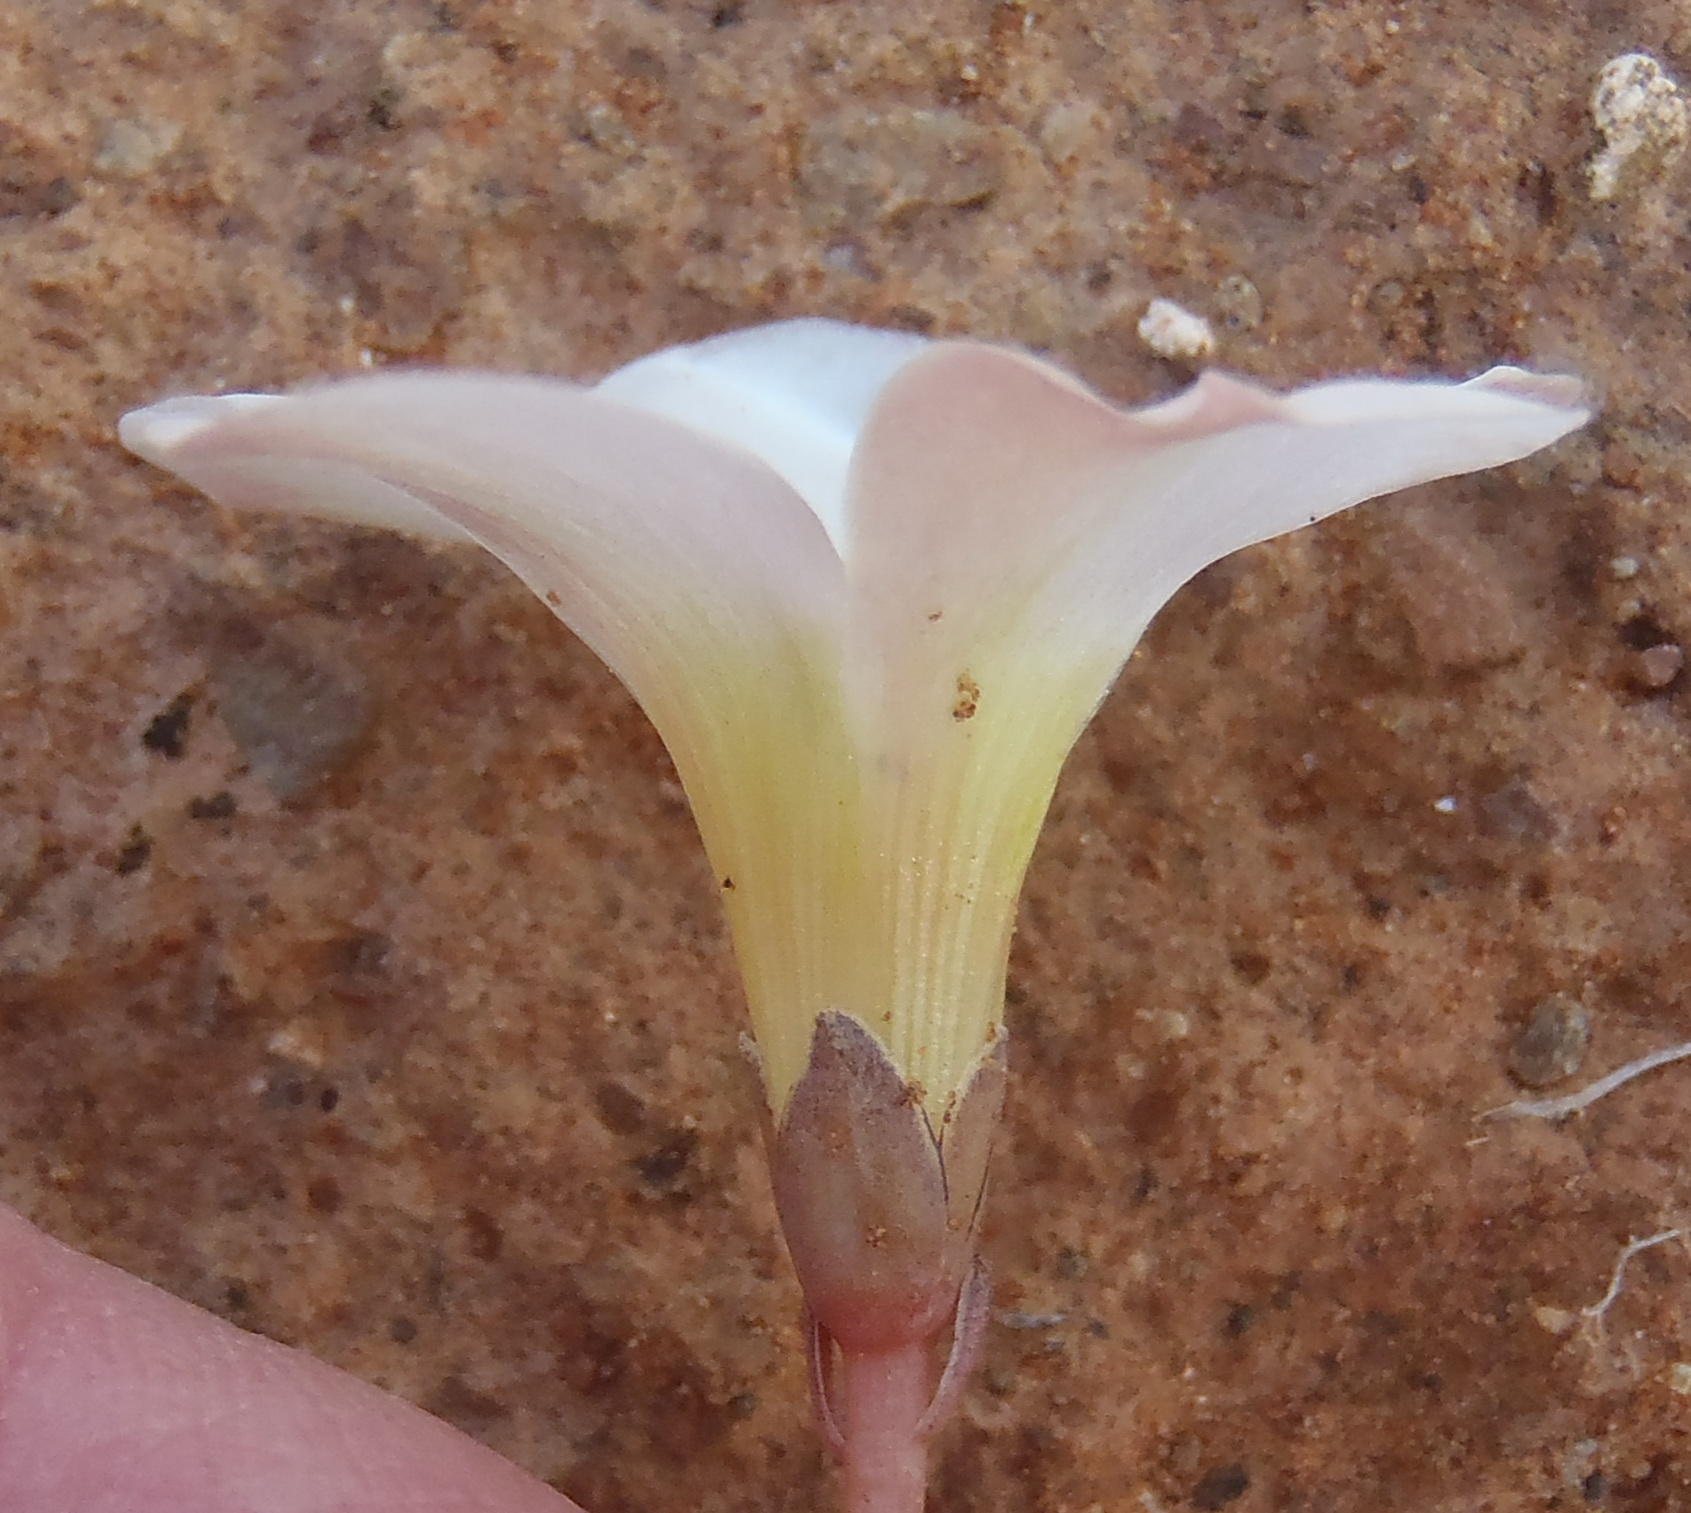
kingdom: Plantae
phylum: Tracheophyta
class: Magnoliopsida
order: Oxalidales
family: Oxalidaceae
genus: Oxalis
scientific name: Oxalis flava
